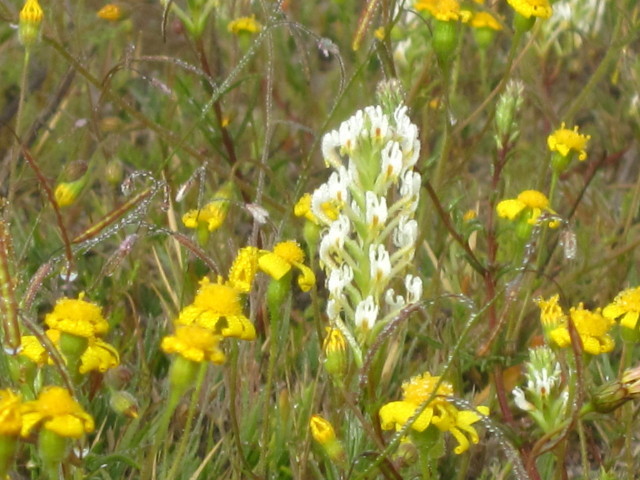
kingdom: Plantae
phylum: Tracheophyta
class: Magnoliopsida
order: Lamiales
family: Scrophulariaceae
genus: Hebenstretia
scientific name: Hebenstretia parviflora
